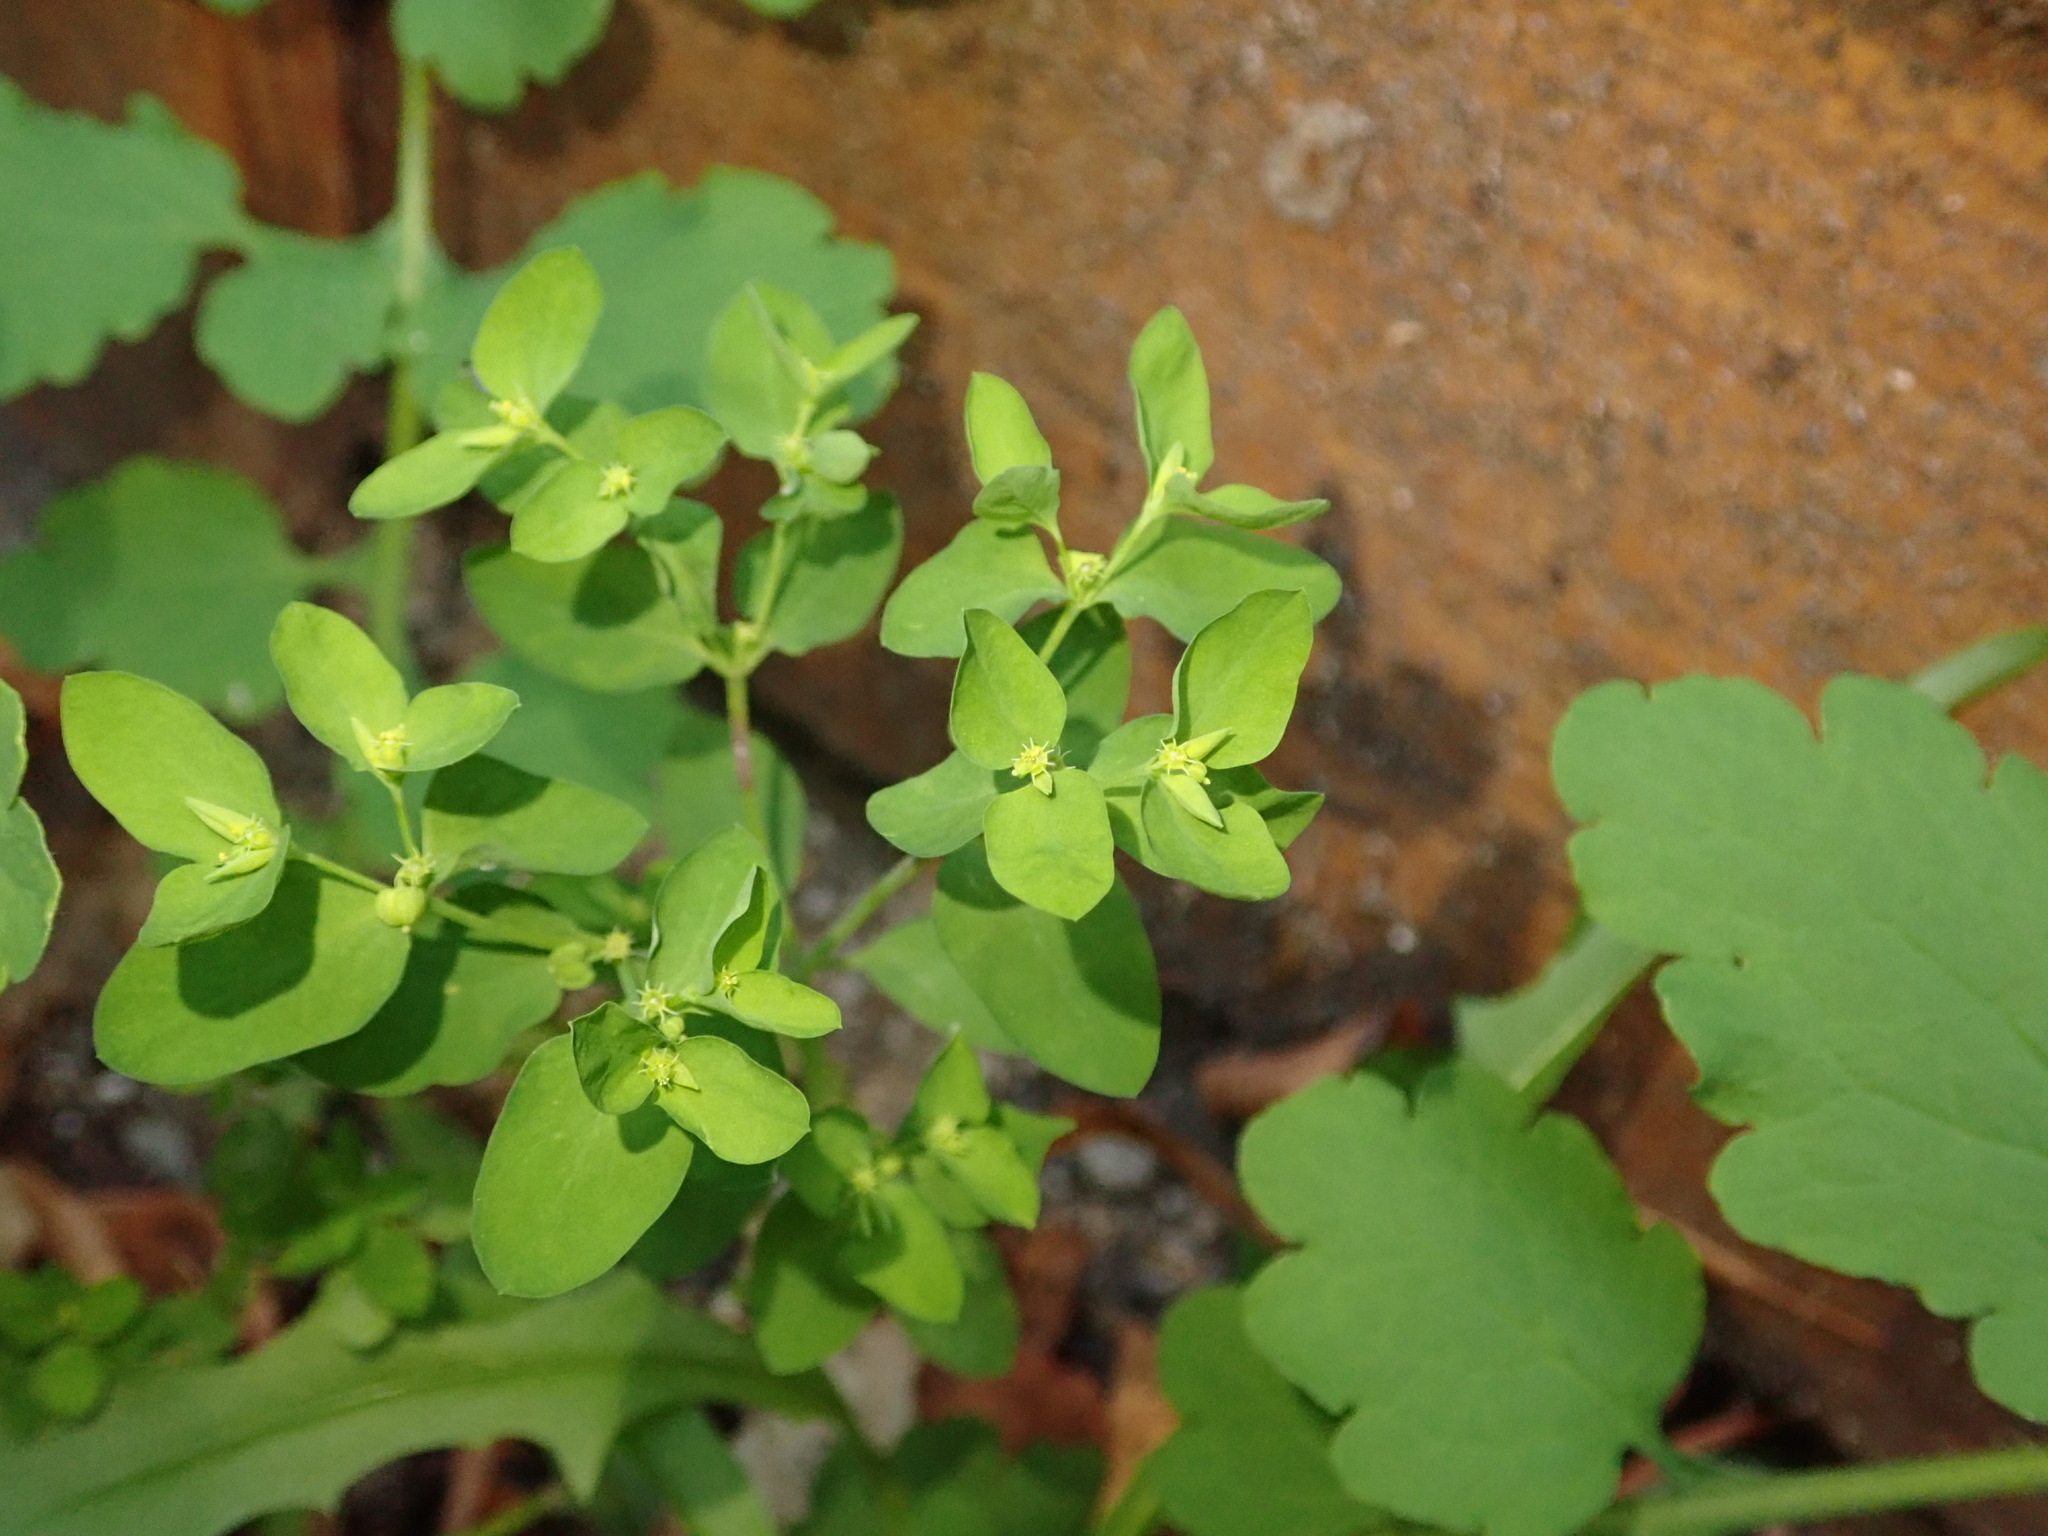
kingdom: Plantae
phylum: Tracheophyta
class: Magnoliopsida
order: Malpighiales
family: Euphorbiaceae
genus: Euphorbia
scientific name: Euphorbia peplus
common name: Petty spurge
